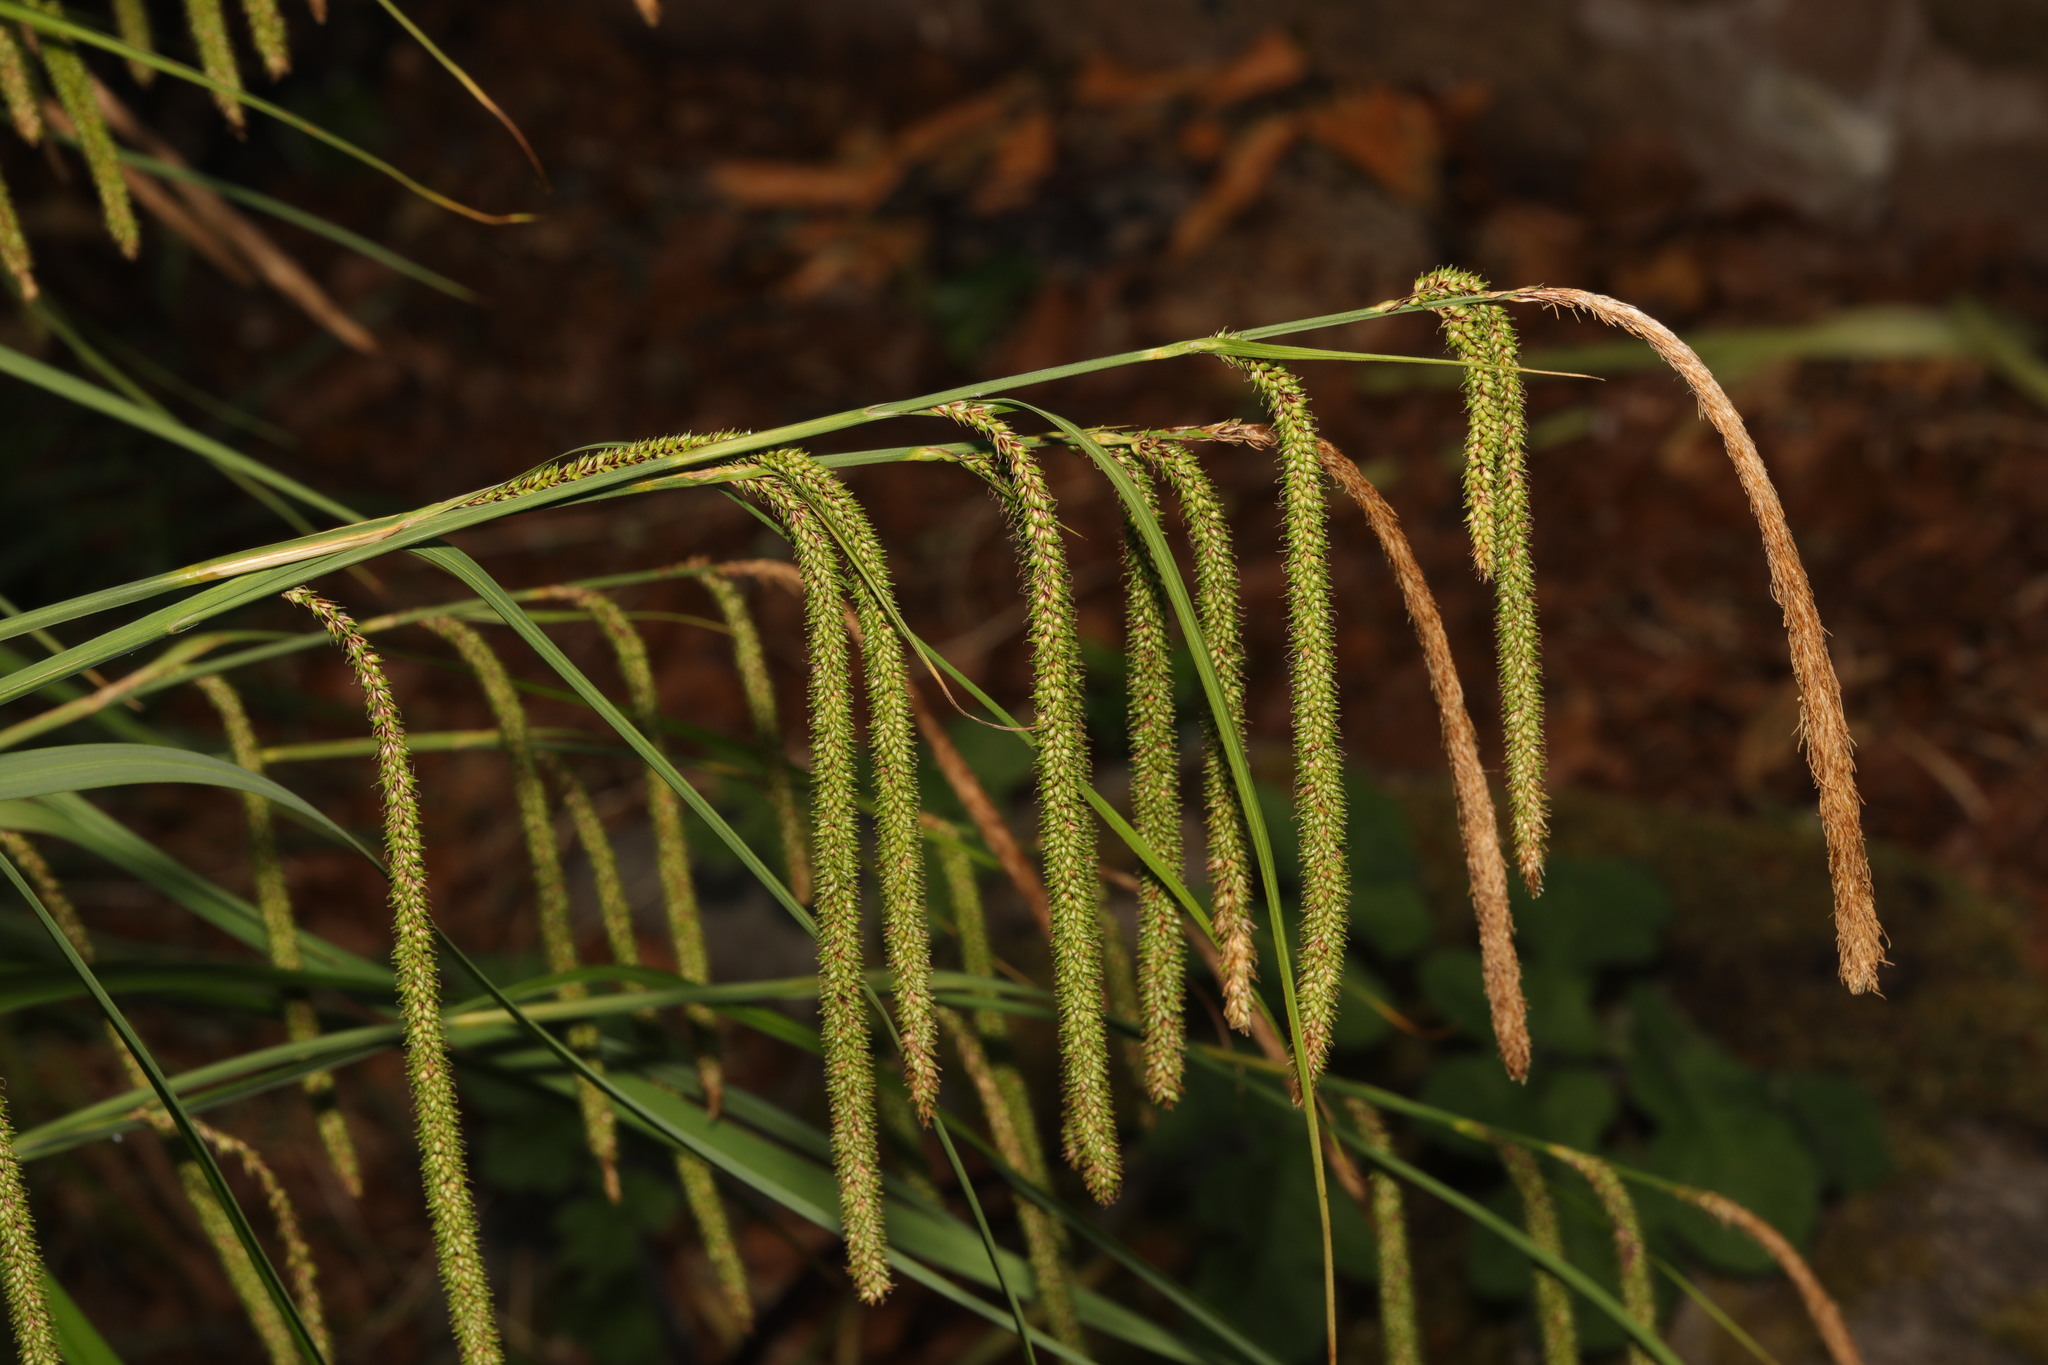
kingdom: Plantae
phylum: Tracheophyta
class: Liliopsida
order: Poales
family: Cyperaceae
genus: Carex
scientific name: Carex pendula
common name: Pendulous sedge
